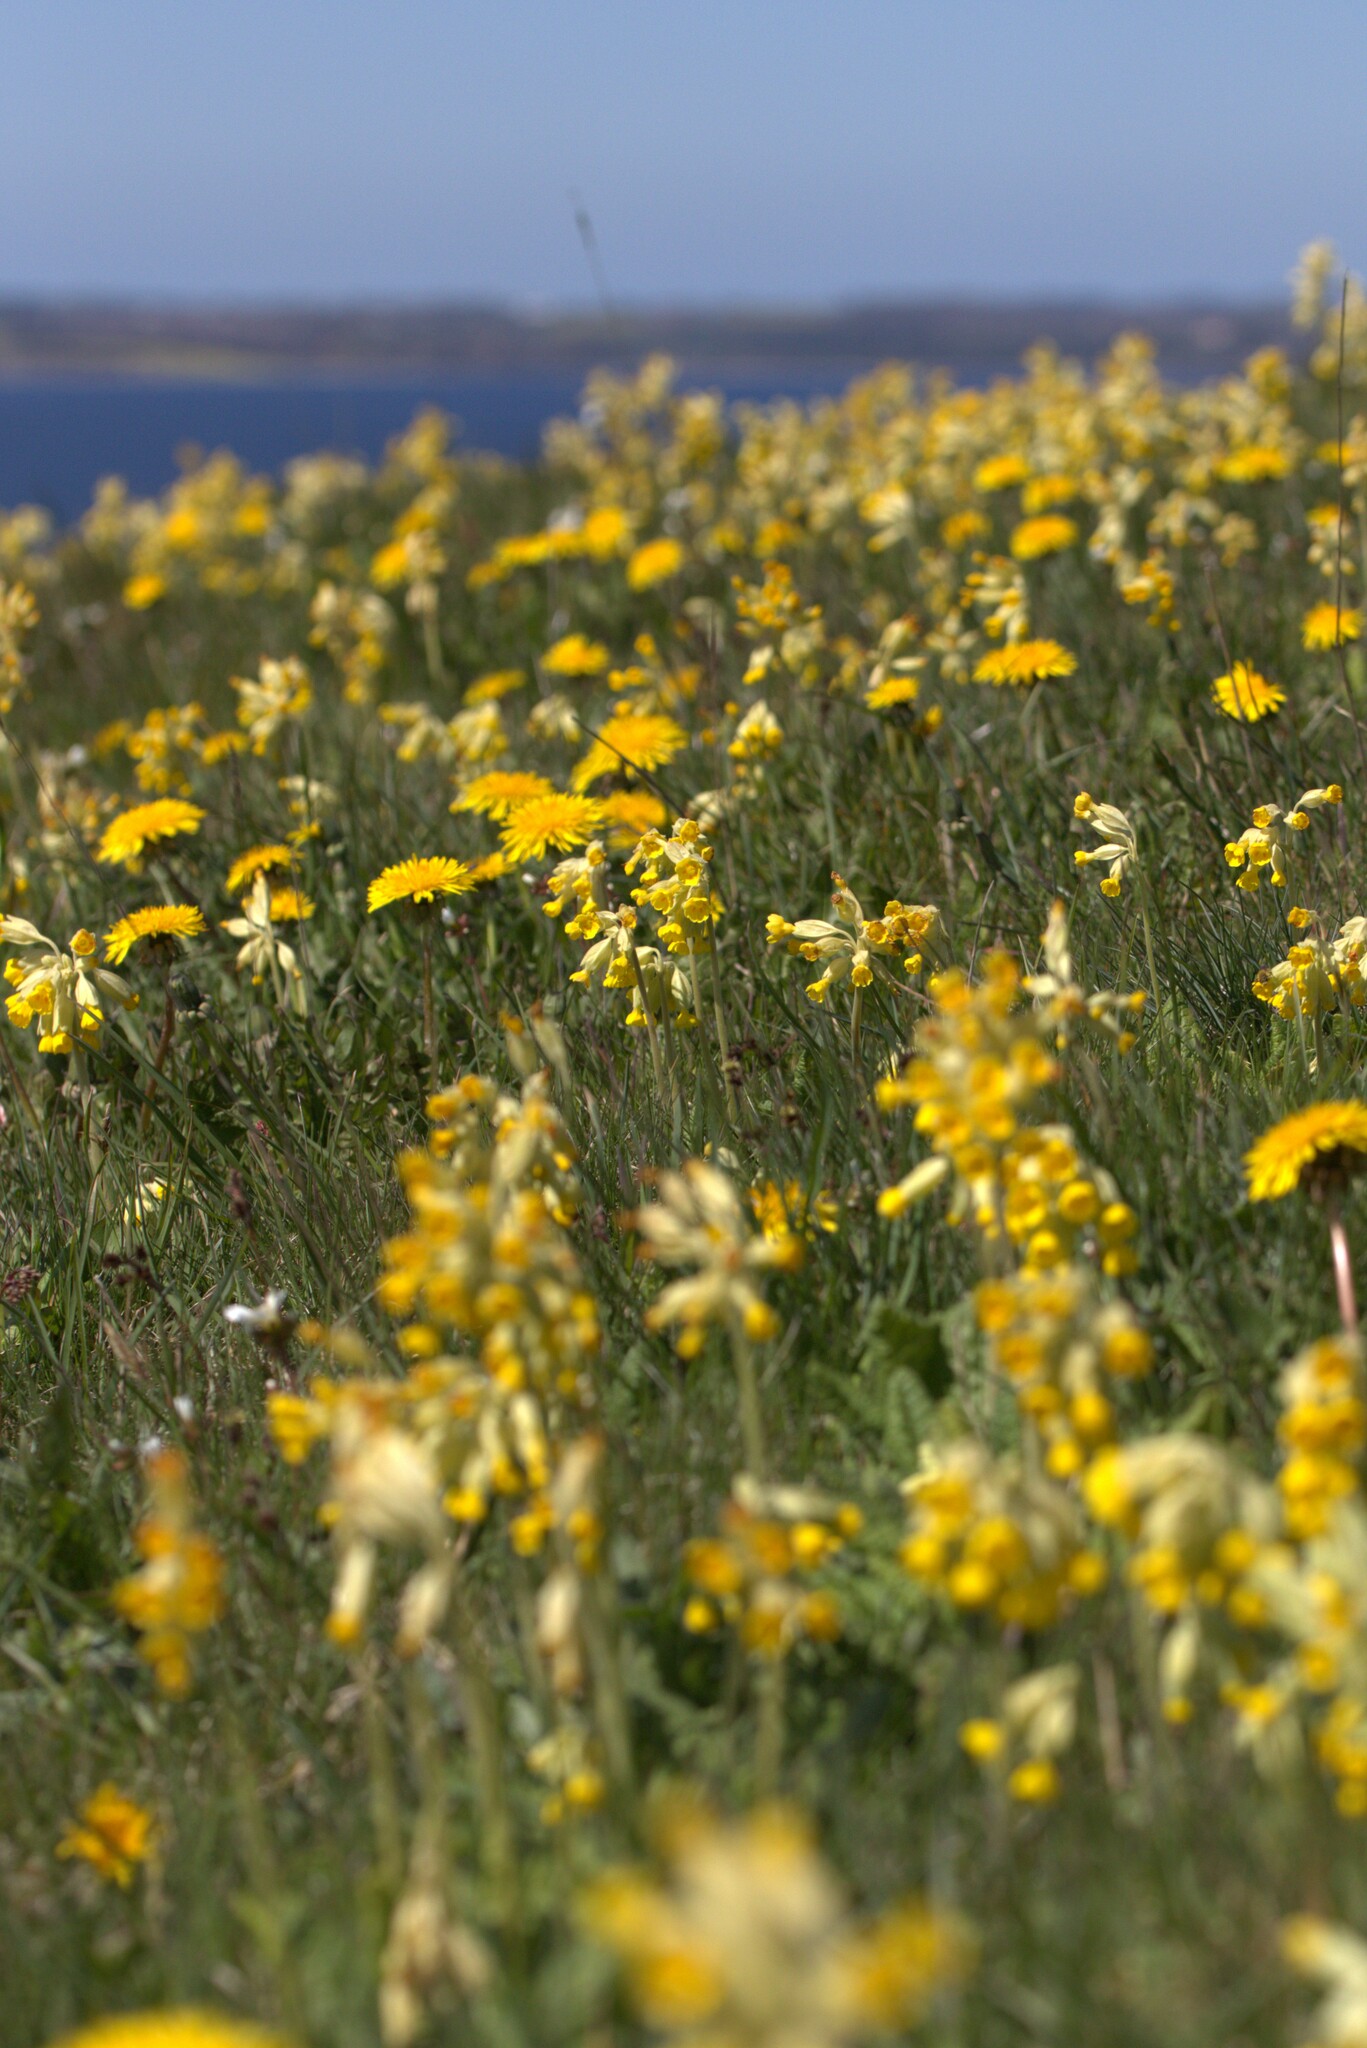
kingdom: Plantae
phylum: Tracheophyta
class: Magnoliopsida
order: Ericales
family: Primulaceae
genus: Primula
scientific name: Primula veris
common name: Cowslip
